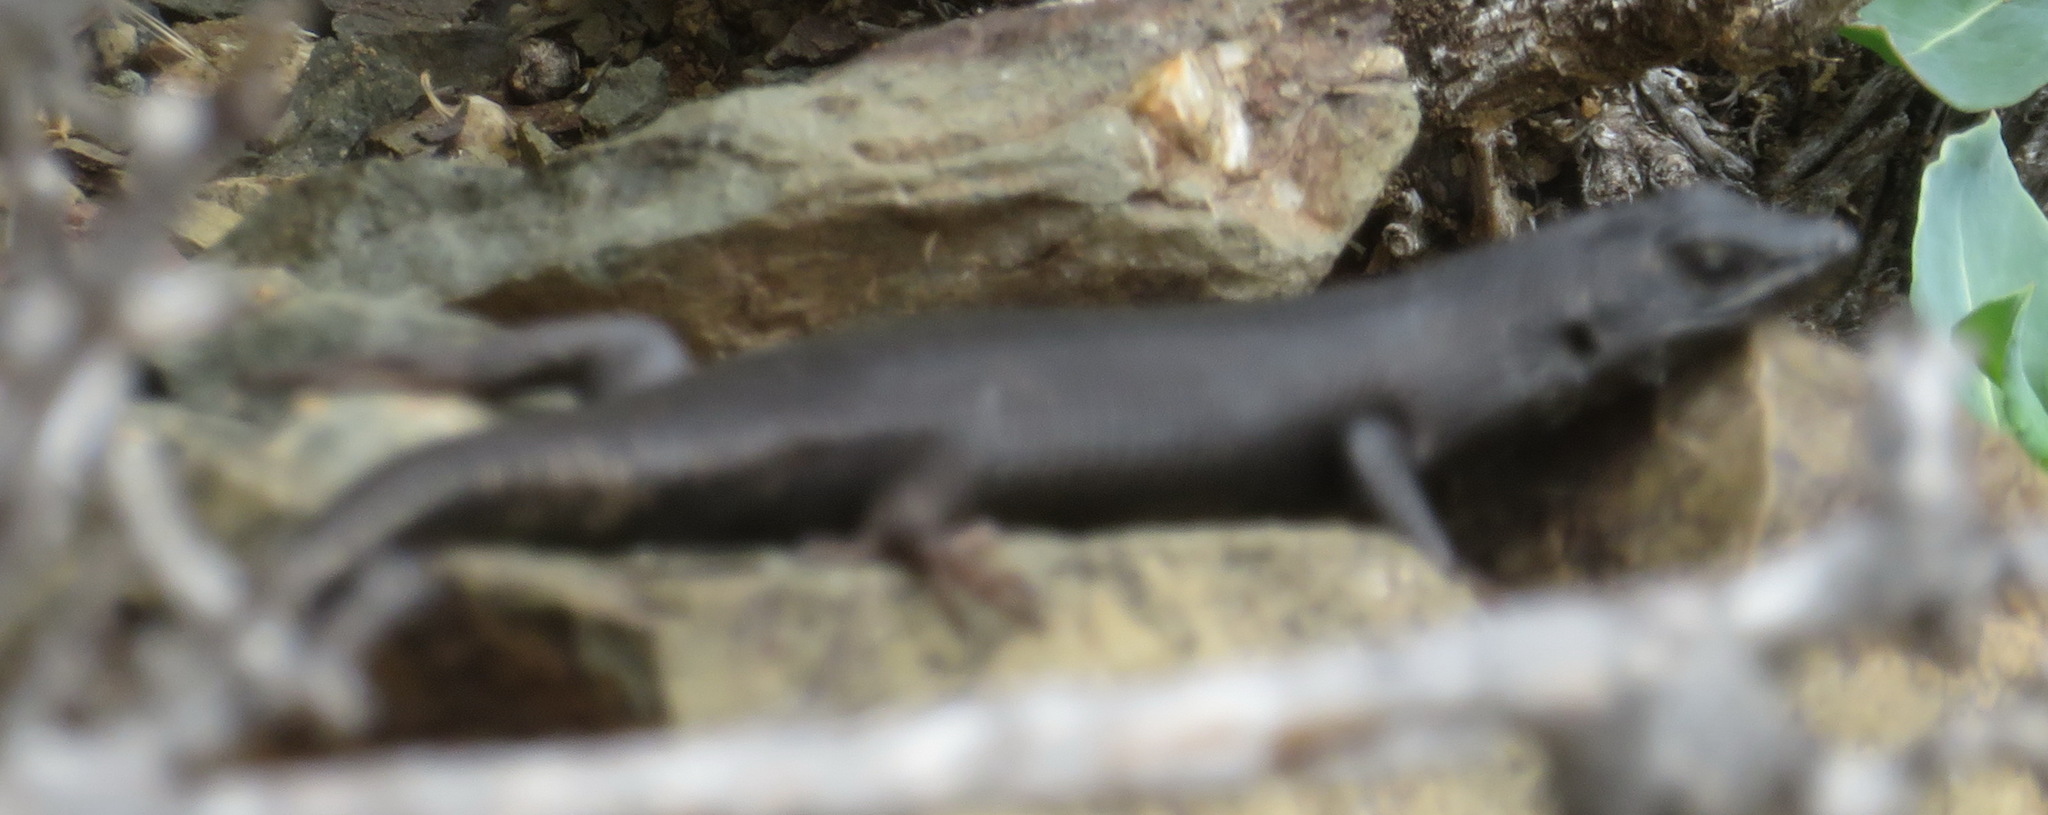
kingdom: Animalia
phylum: Chordata
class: Squamata
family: Scincidae
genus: Trachylepis
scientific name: Trachylepis sulcata
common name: Western rock skink
